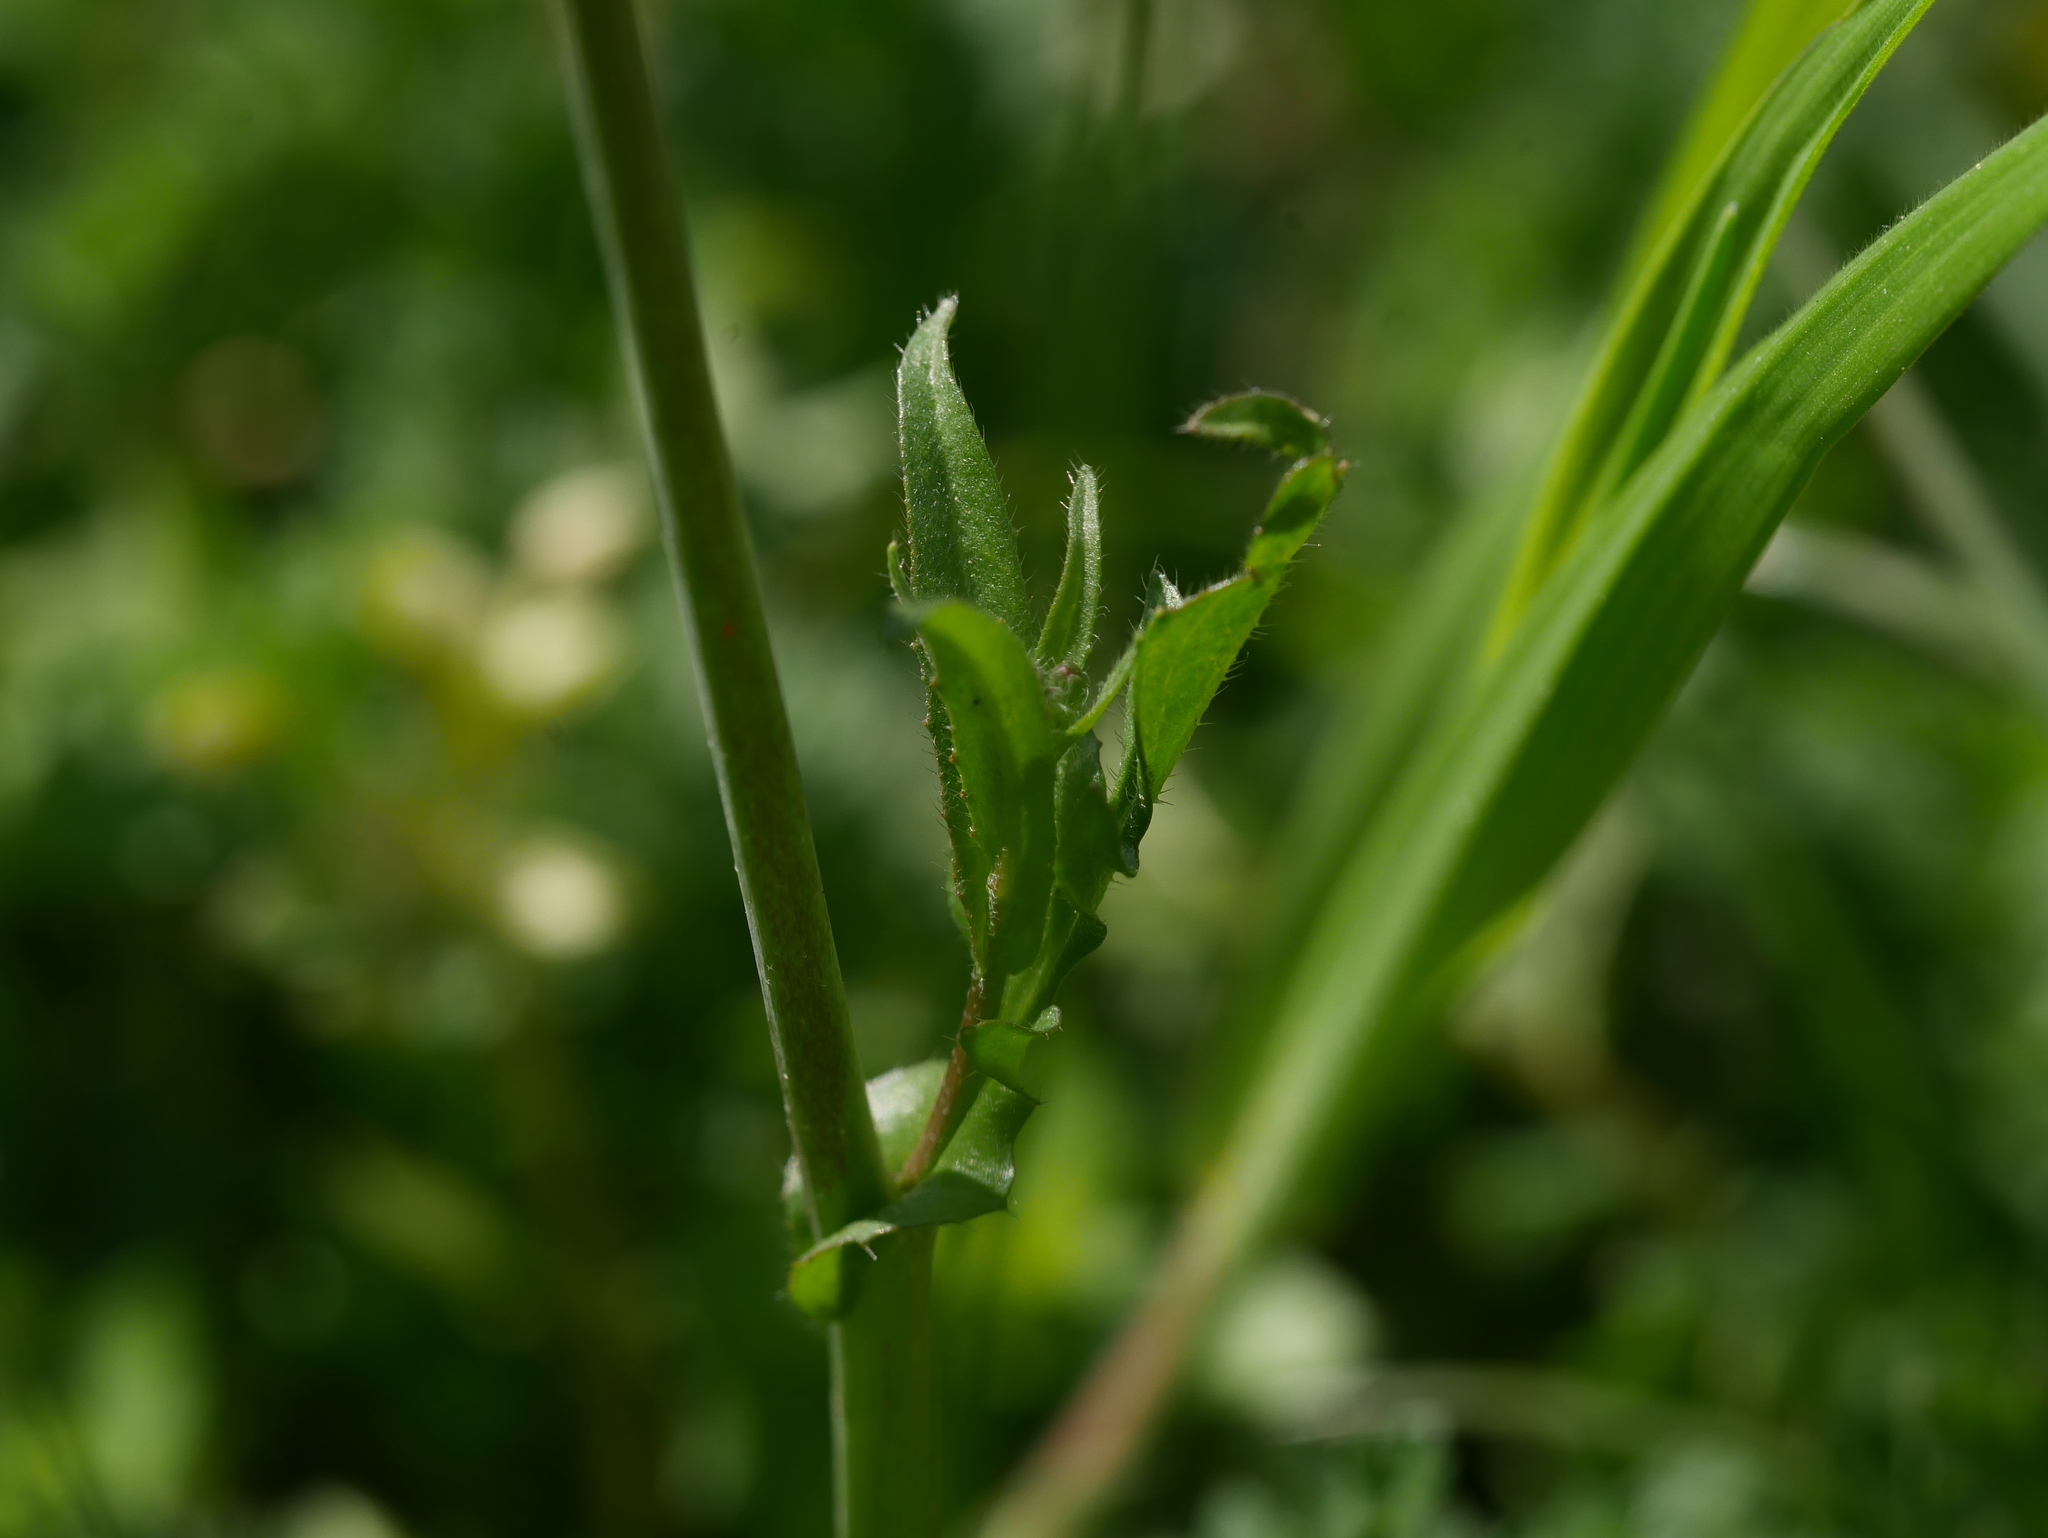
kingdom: Plantae
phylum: Tracheophyta
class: Magnoliopsida
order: Brassicales
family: Brassicaceae
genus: Capsella
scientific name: Capsella bursa-pastoris
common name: Shepherd's purse
